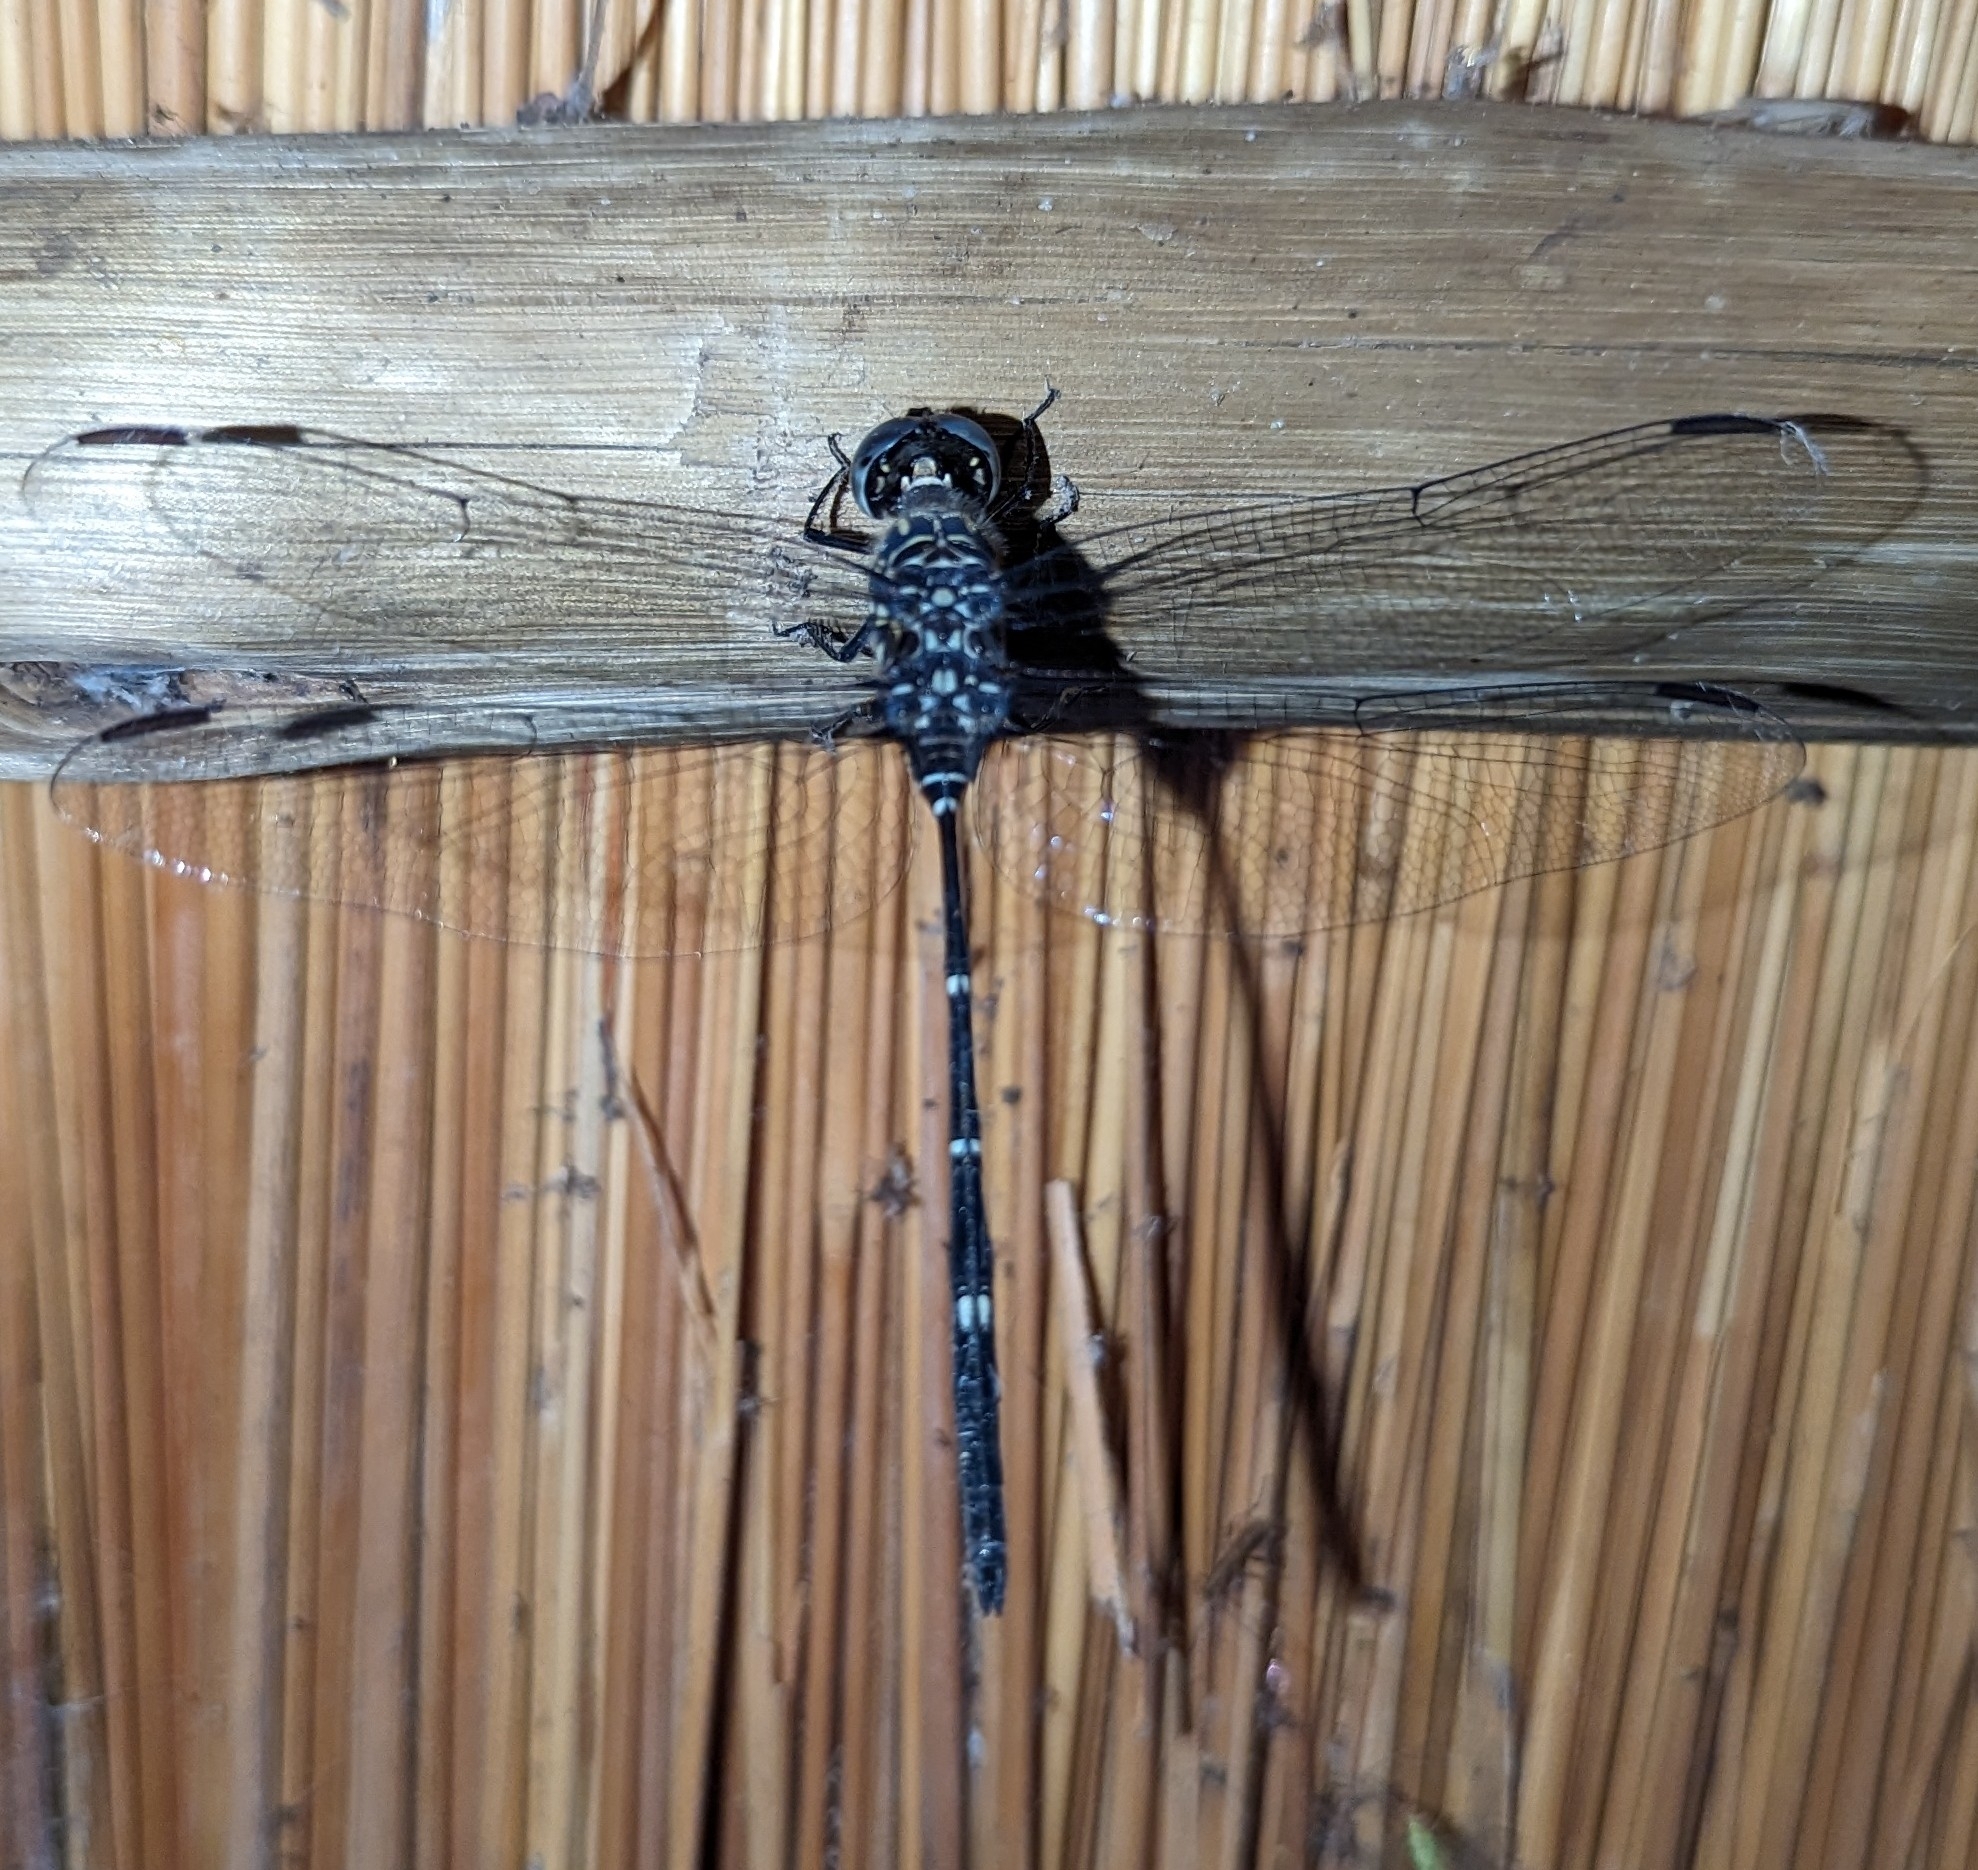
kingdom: Animalia
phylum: Arthropoda
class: Insecta
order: Odonata
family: Libellulidae
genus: Olpogastra
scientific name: Olpogastra lugubris
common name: Bottletail
